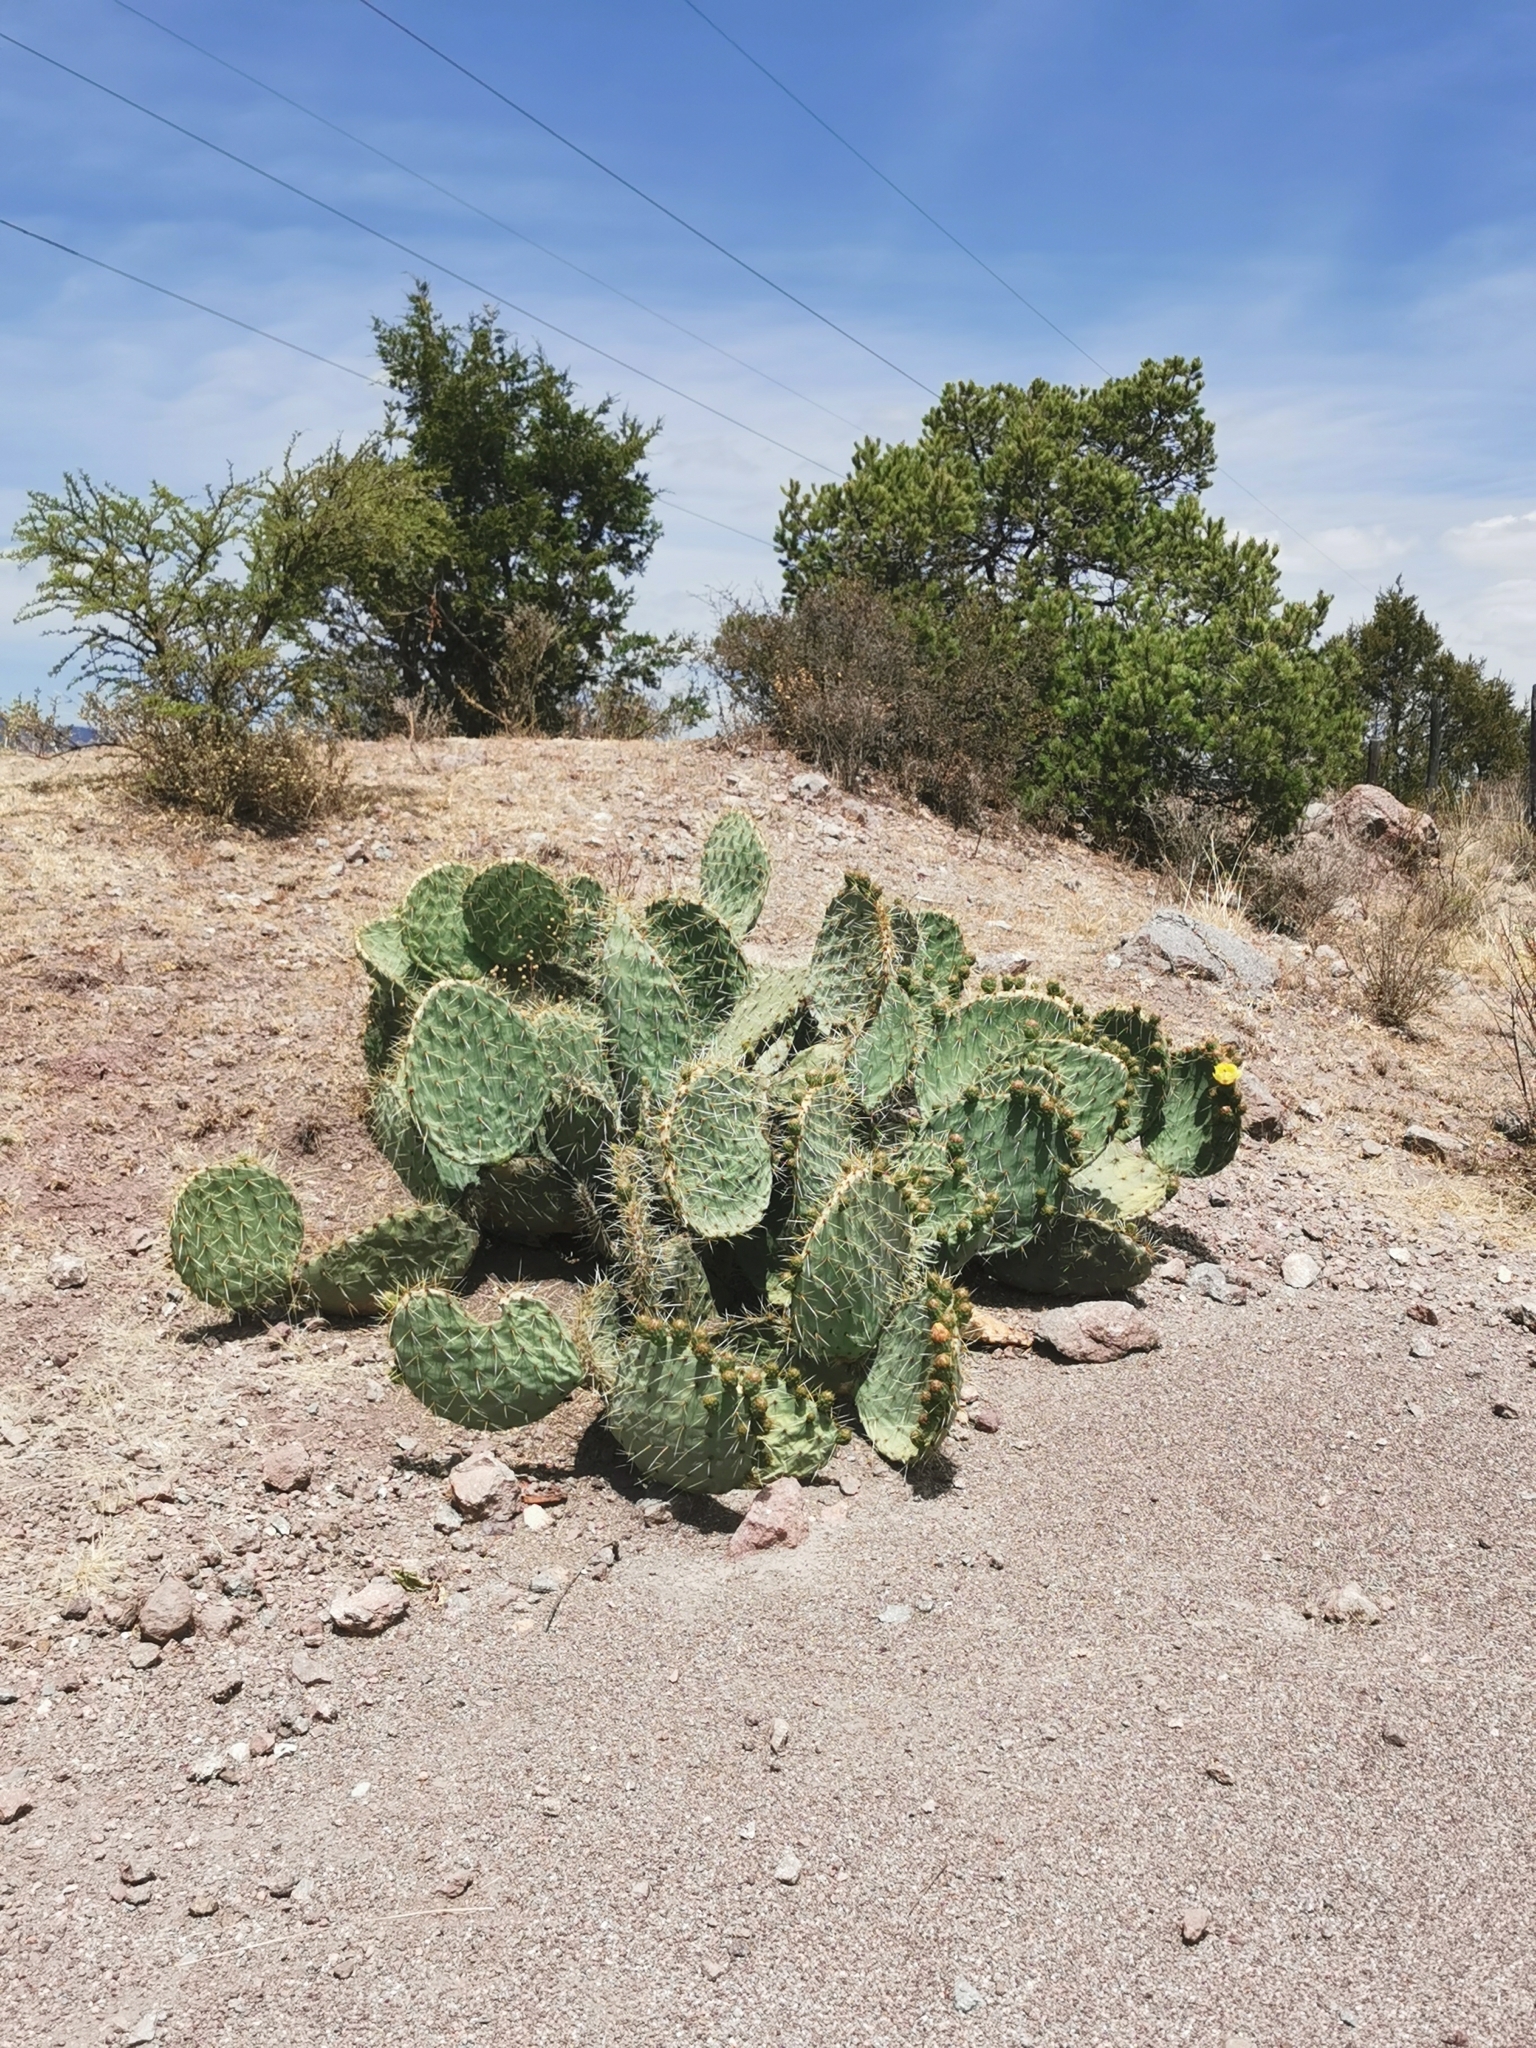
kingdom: Plantae
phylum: Tracheophyta
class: Magnoliopsida
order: Caryophyllales
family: Cactaceae
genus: Opuntia
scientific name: Opuntia robusta
